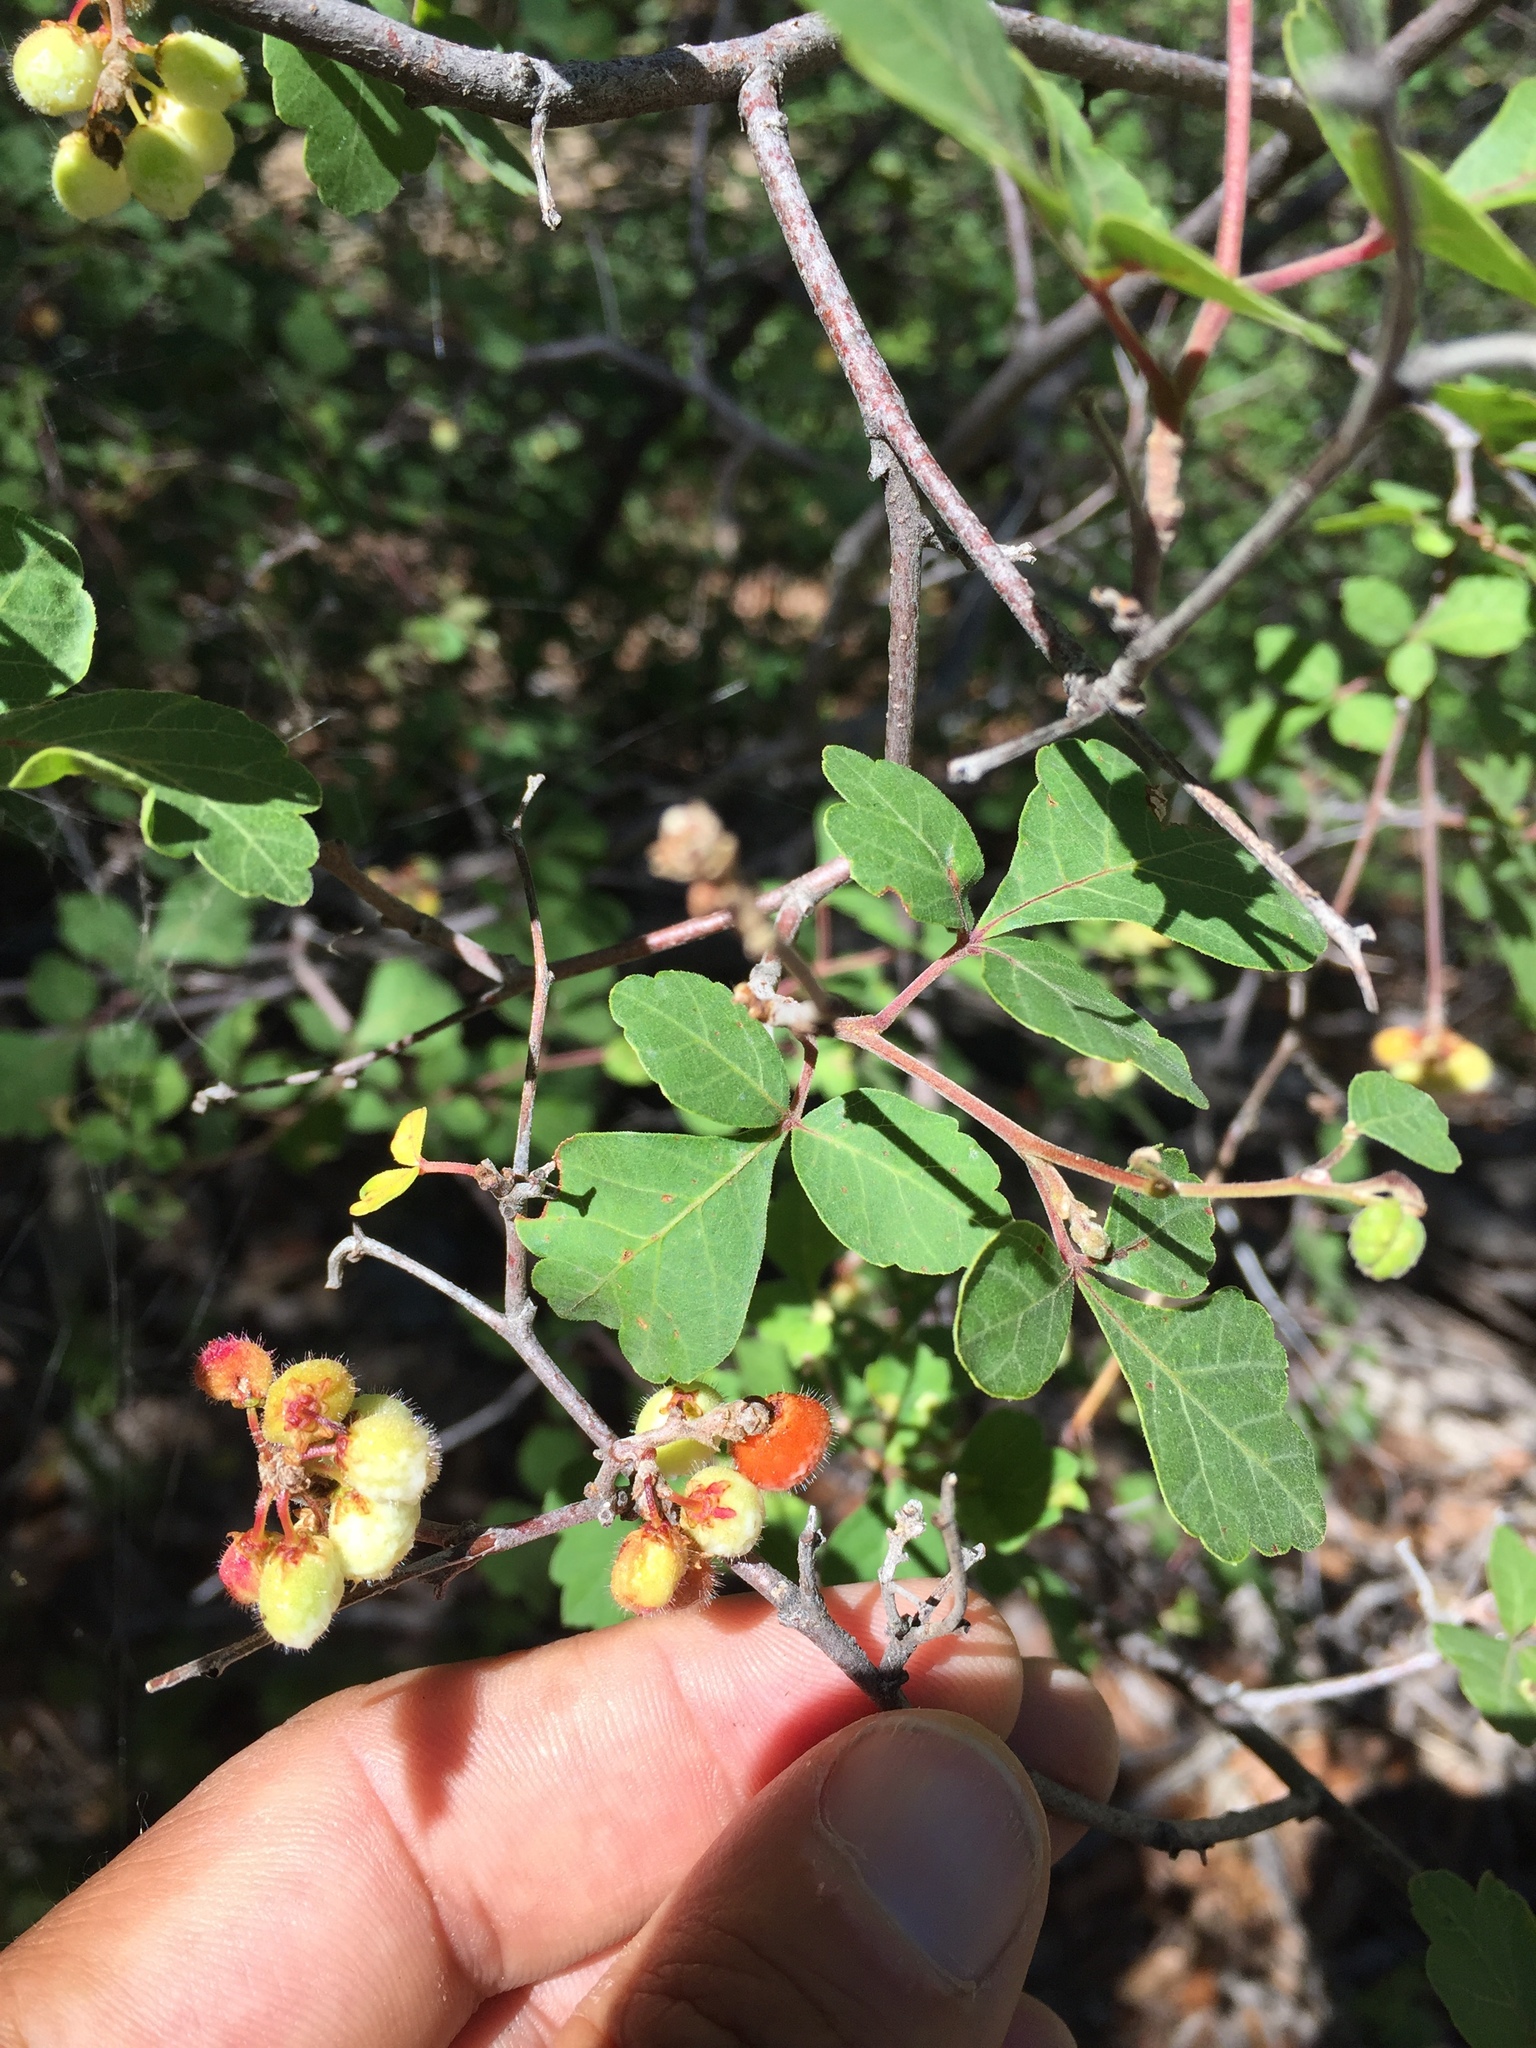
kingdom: Plantae
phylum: Tracheophyta
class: Magnoliopsida
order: Sapindales
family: Anacardiaceae
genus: Rhus
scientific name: Rhus aromatica
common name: Aromatic sumac
